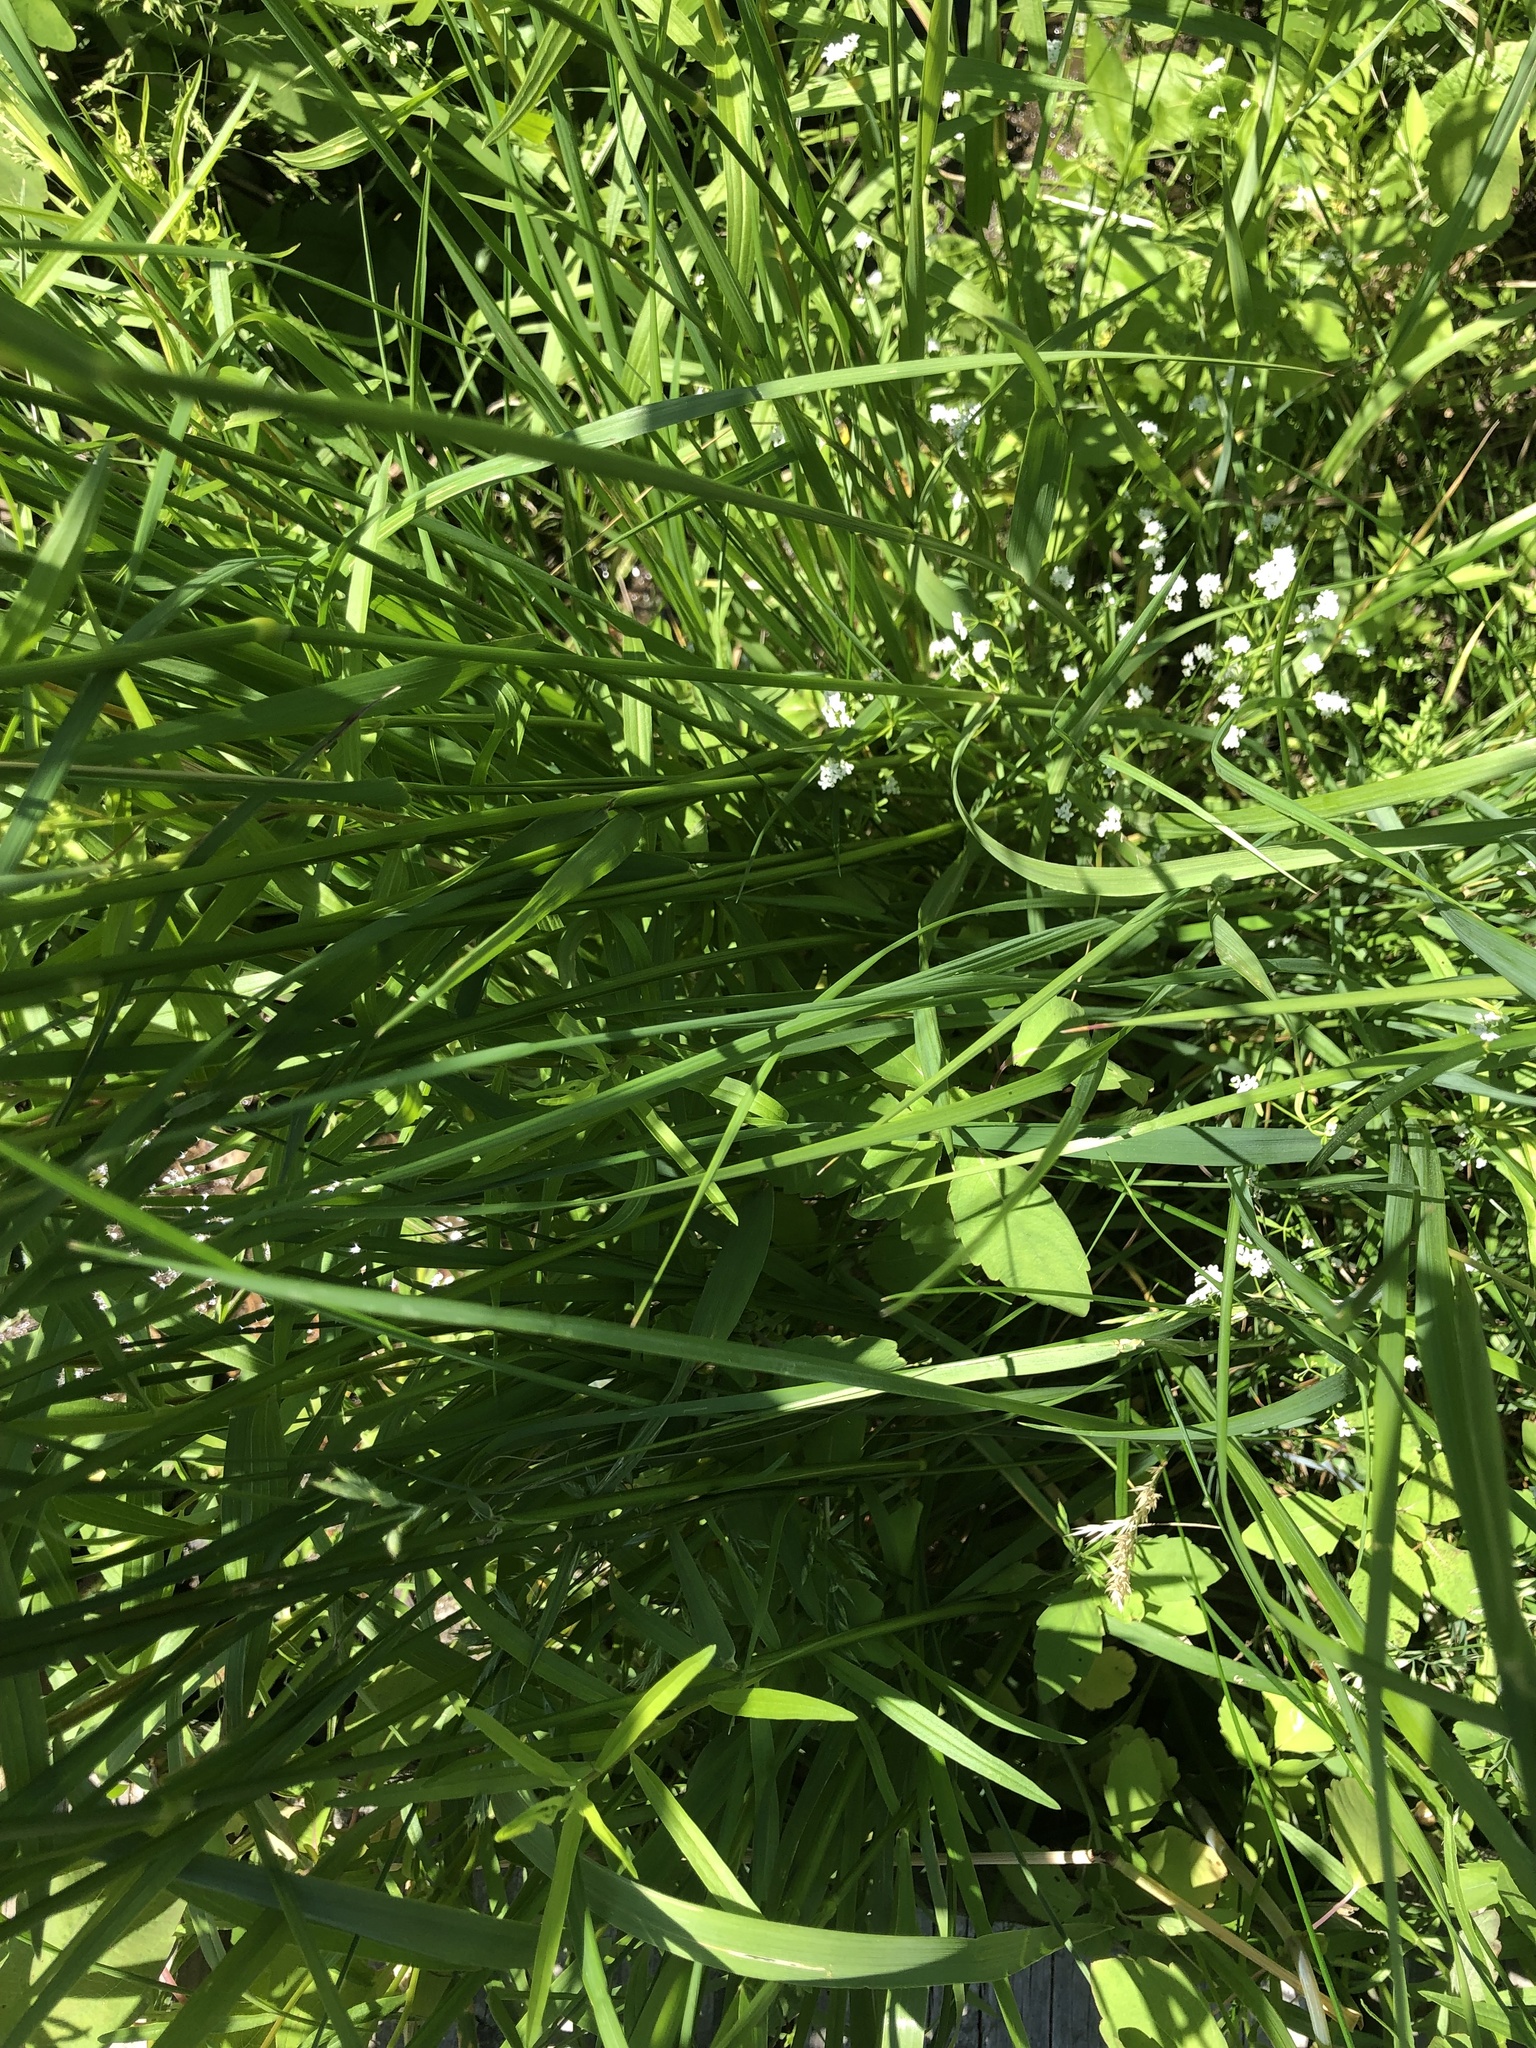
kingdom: Plantae
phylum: Tracheophyta
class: Liliopsida
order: Poales
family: Poaceae
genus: Alopecurus
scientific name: Alopecurus pratensis
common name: Meadow foxtail
